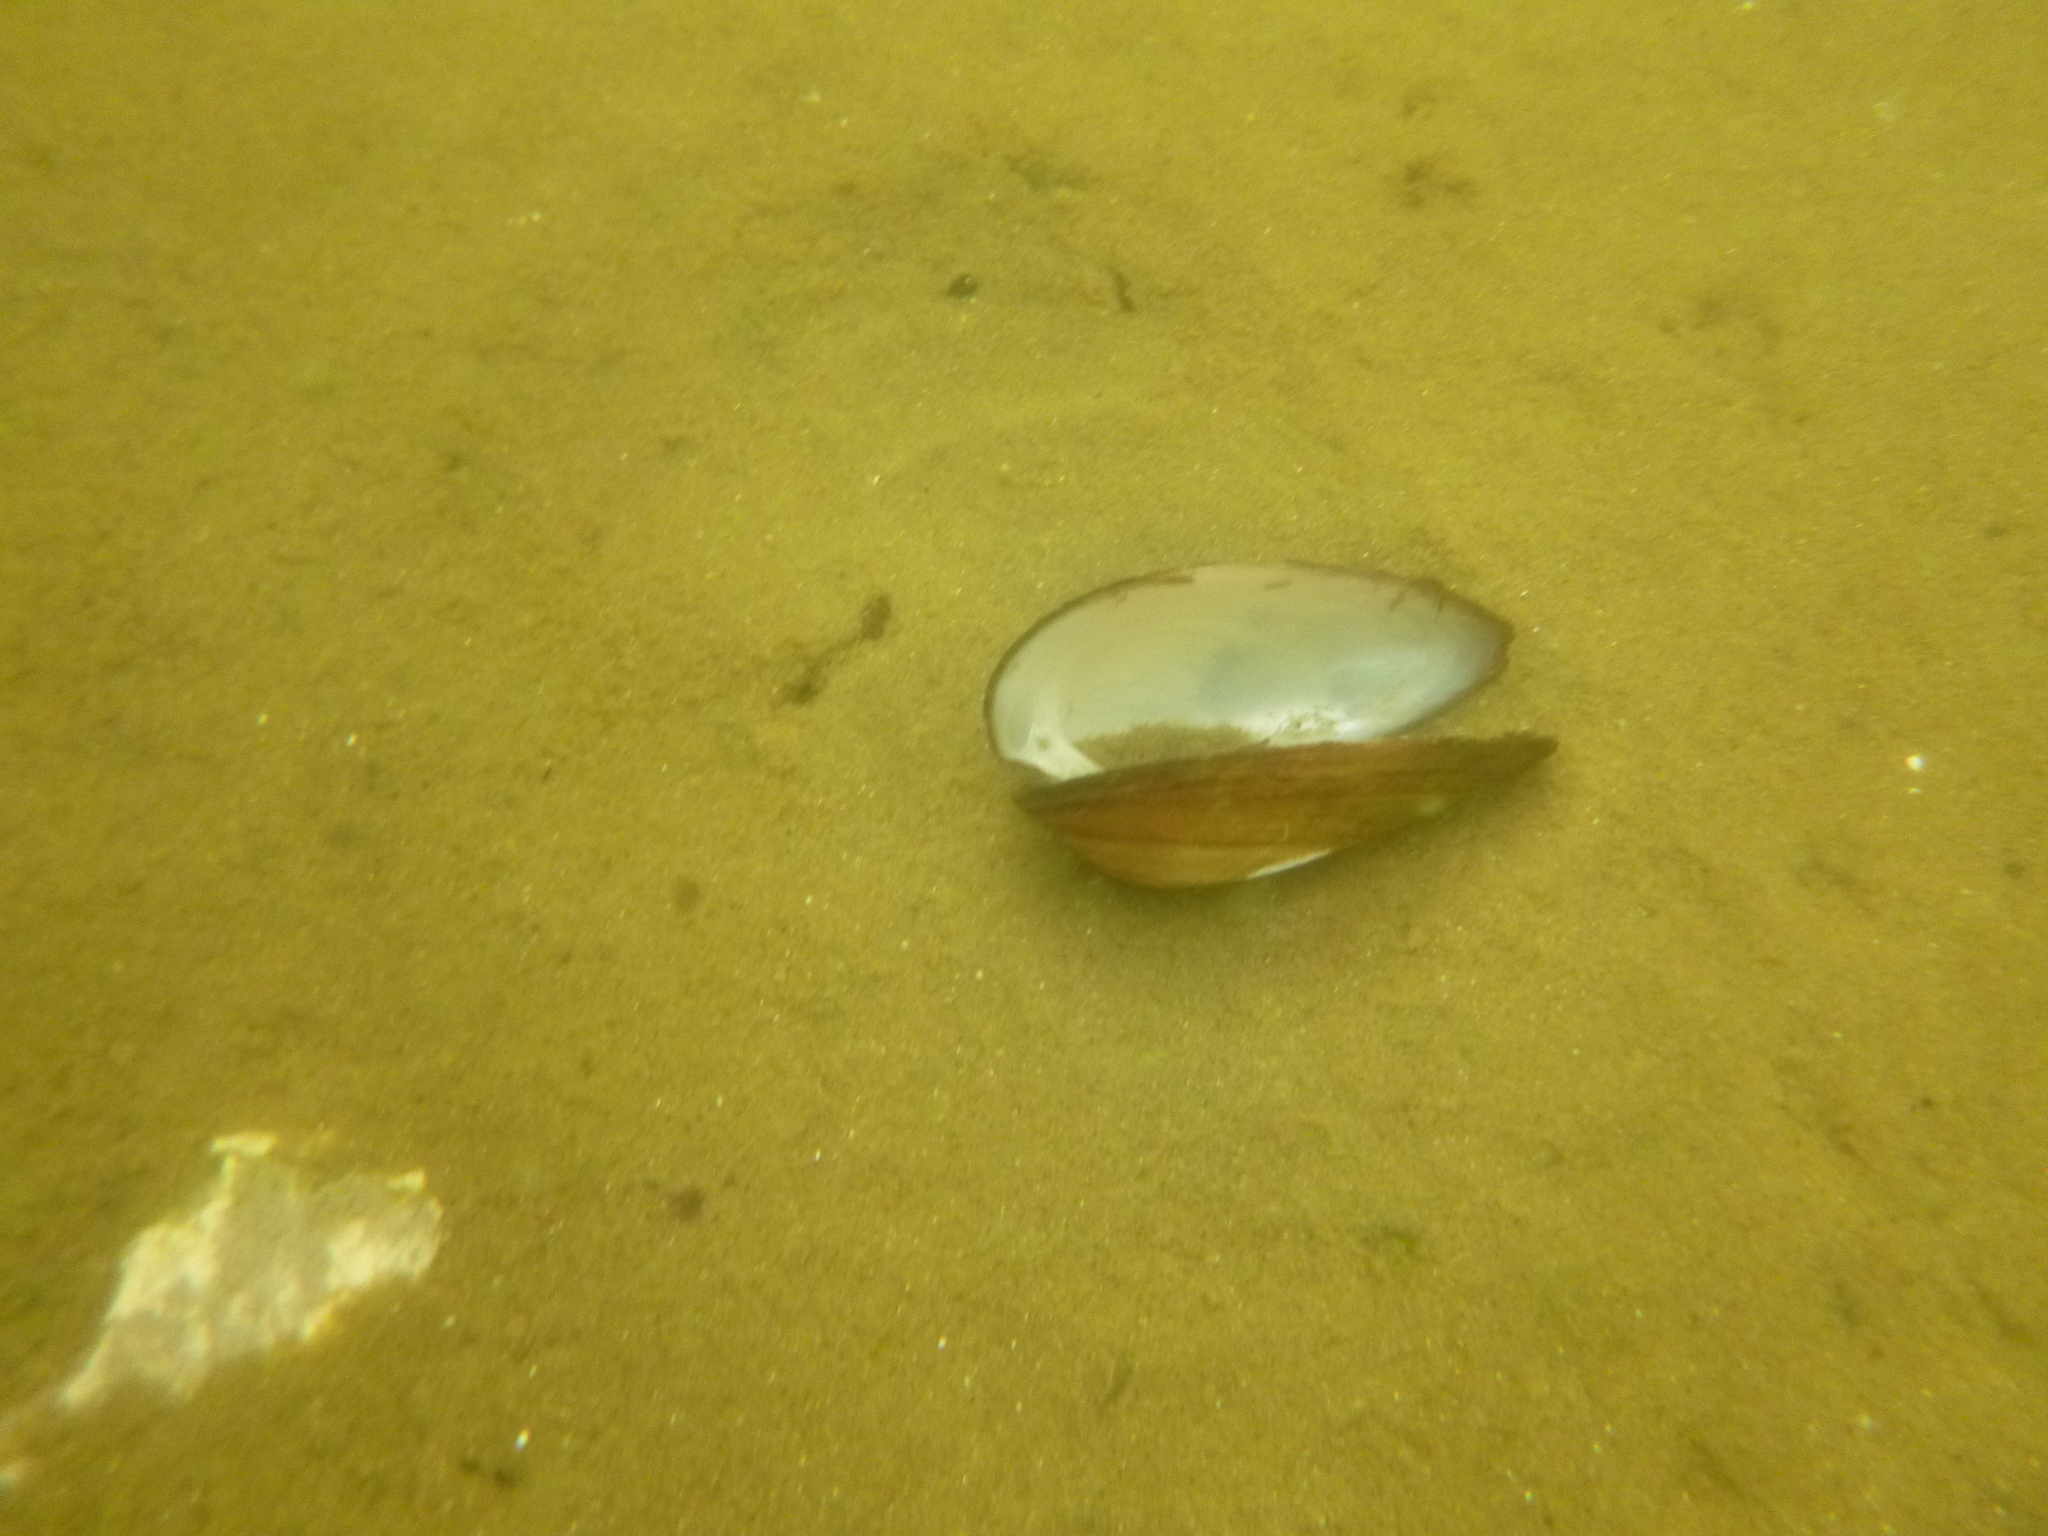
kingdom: Animalia
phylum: Mollusca
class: Bivalvia
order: Unionida
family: Unionidae
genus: Unio
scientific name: Unio tumidus
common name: Swollen river mussel
